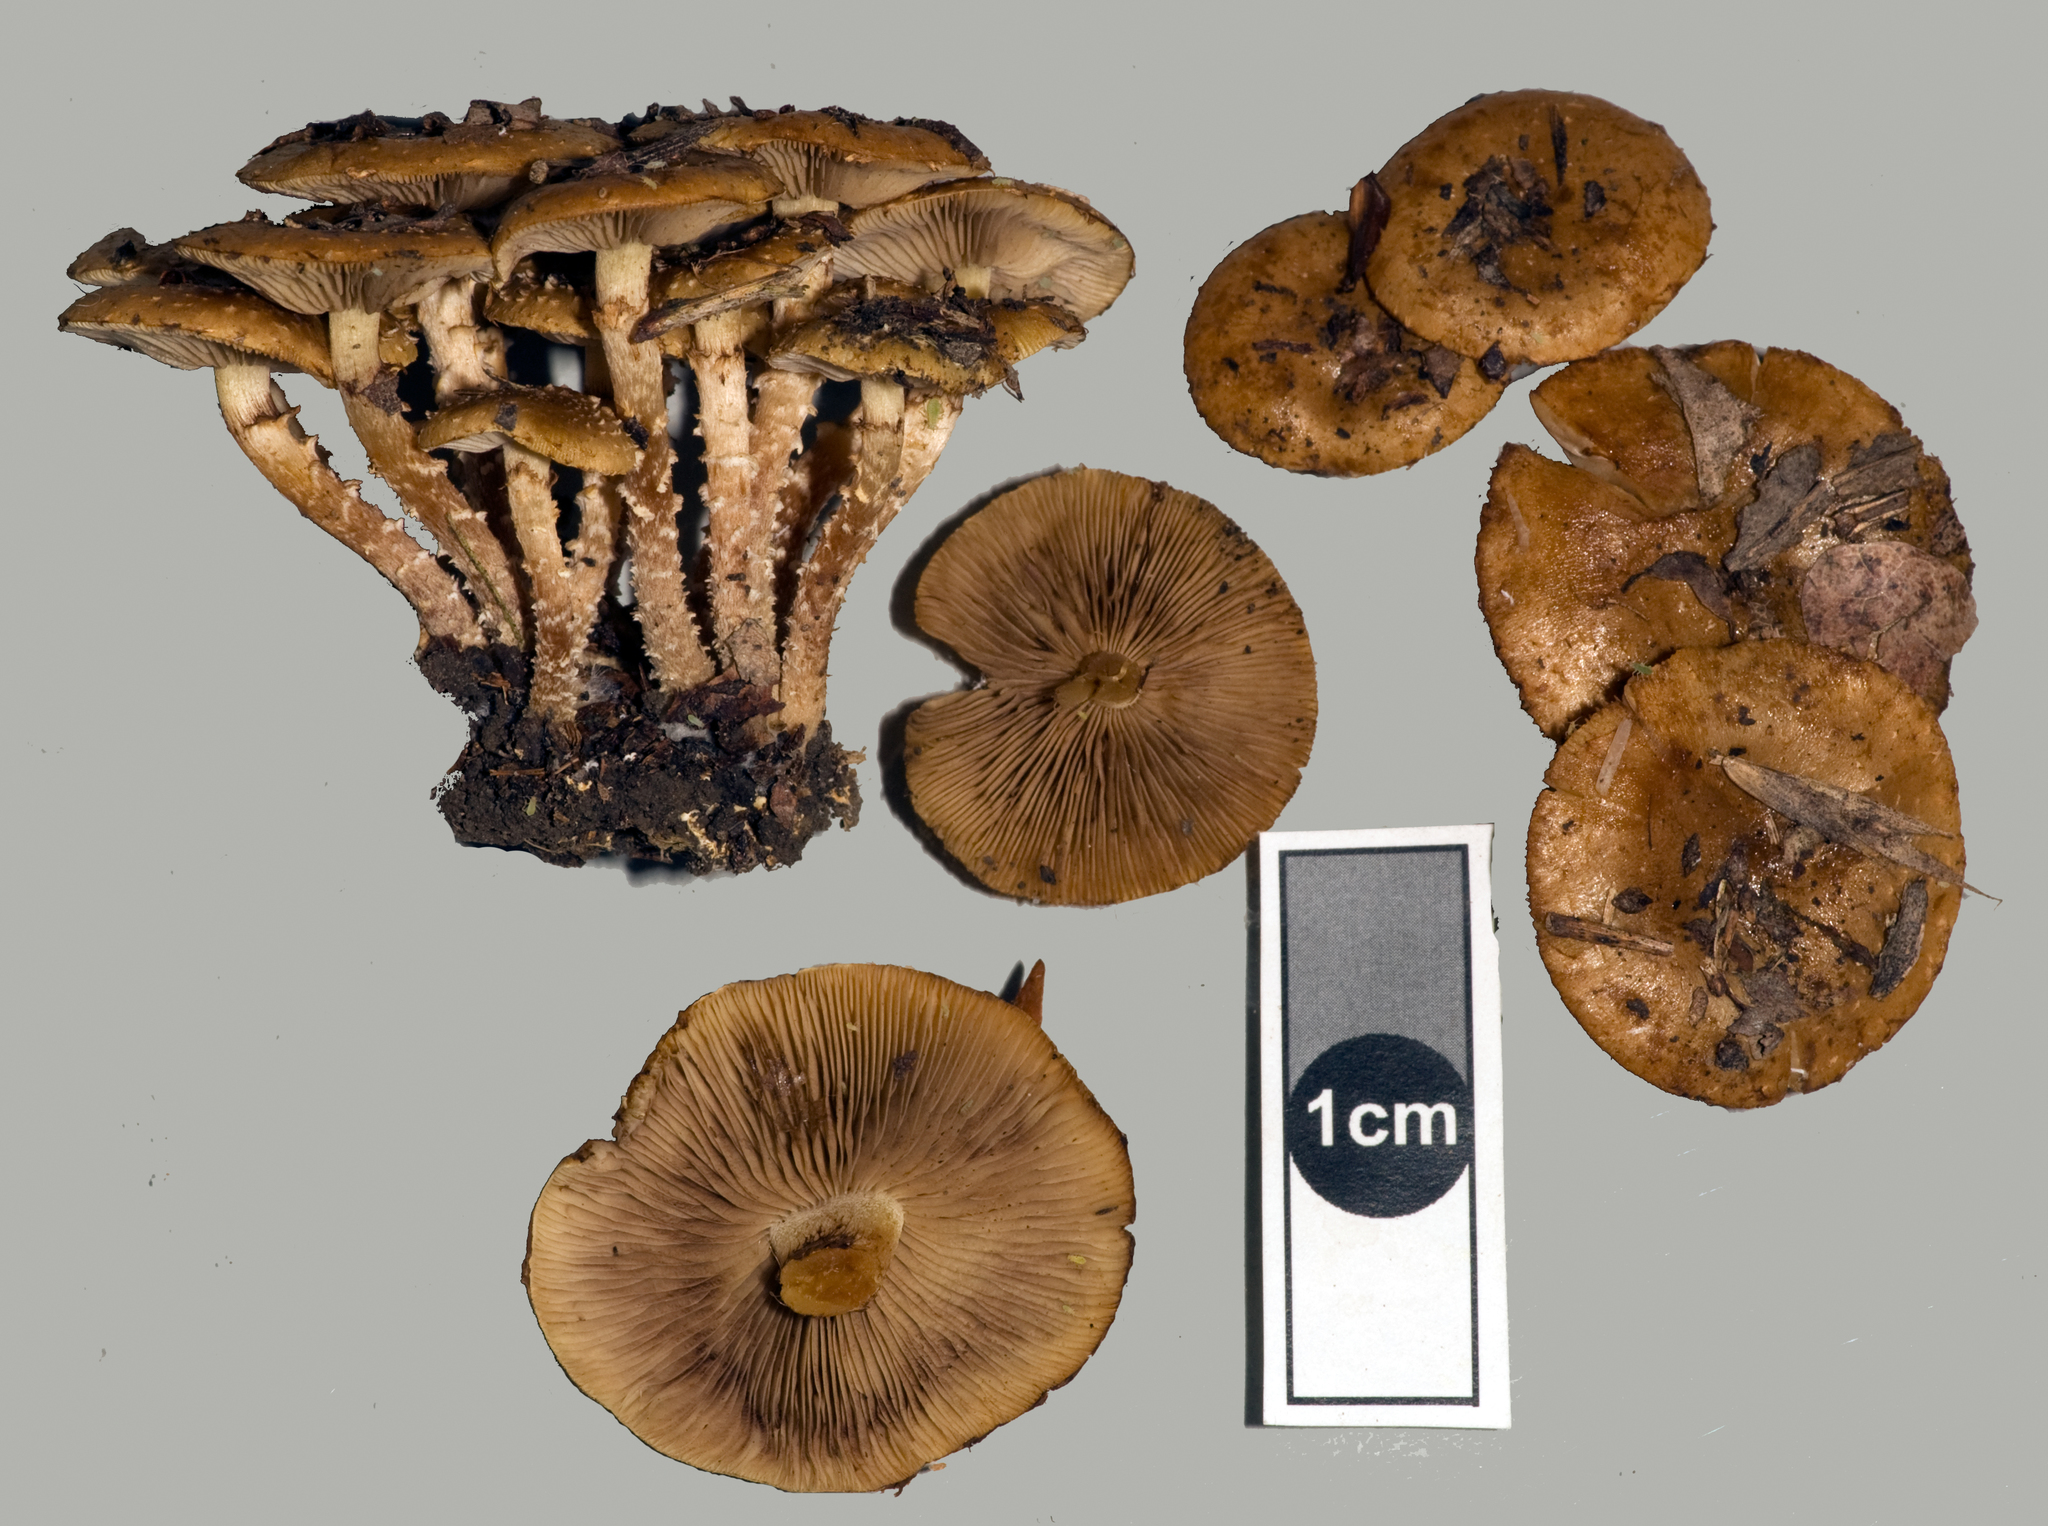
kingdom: Fungi
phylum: Basidiomycota
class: Agaricomycetes
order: Agaricales
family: Strophariaceae
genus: Pholiota
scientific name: Pholiota subflammans
